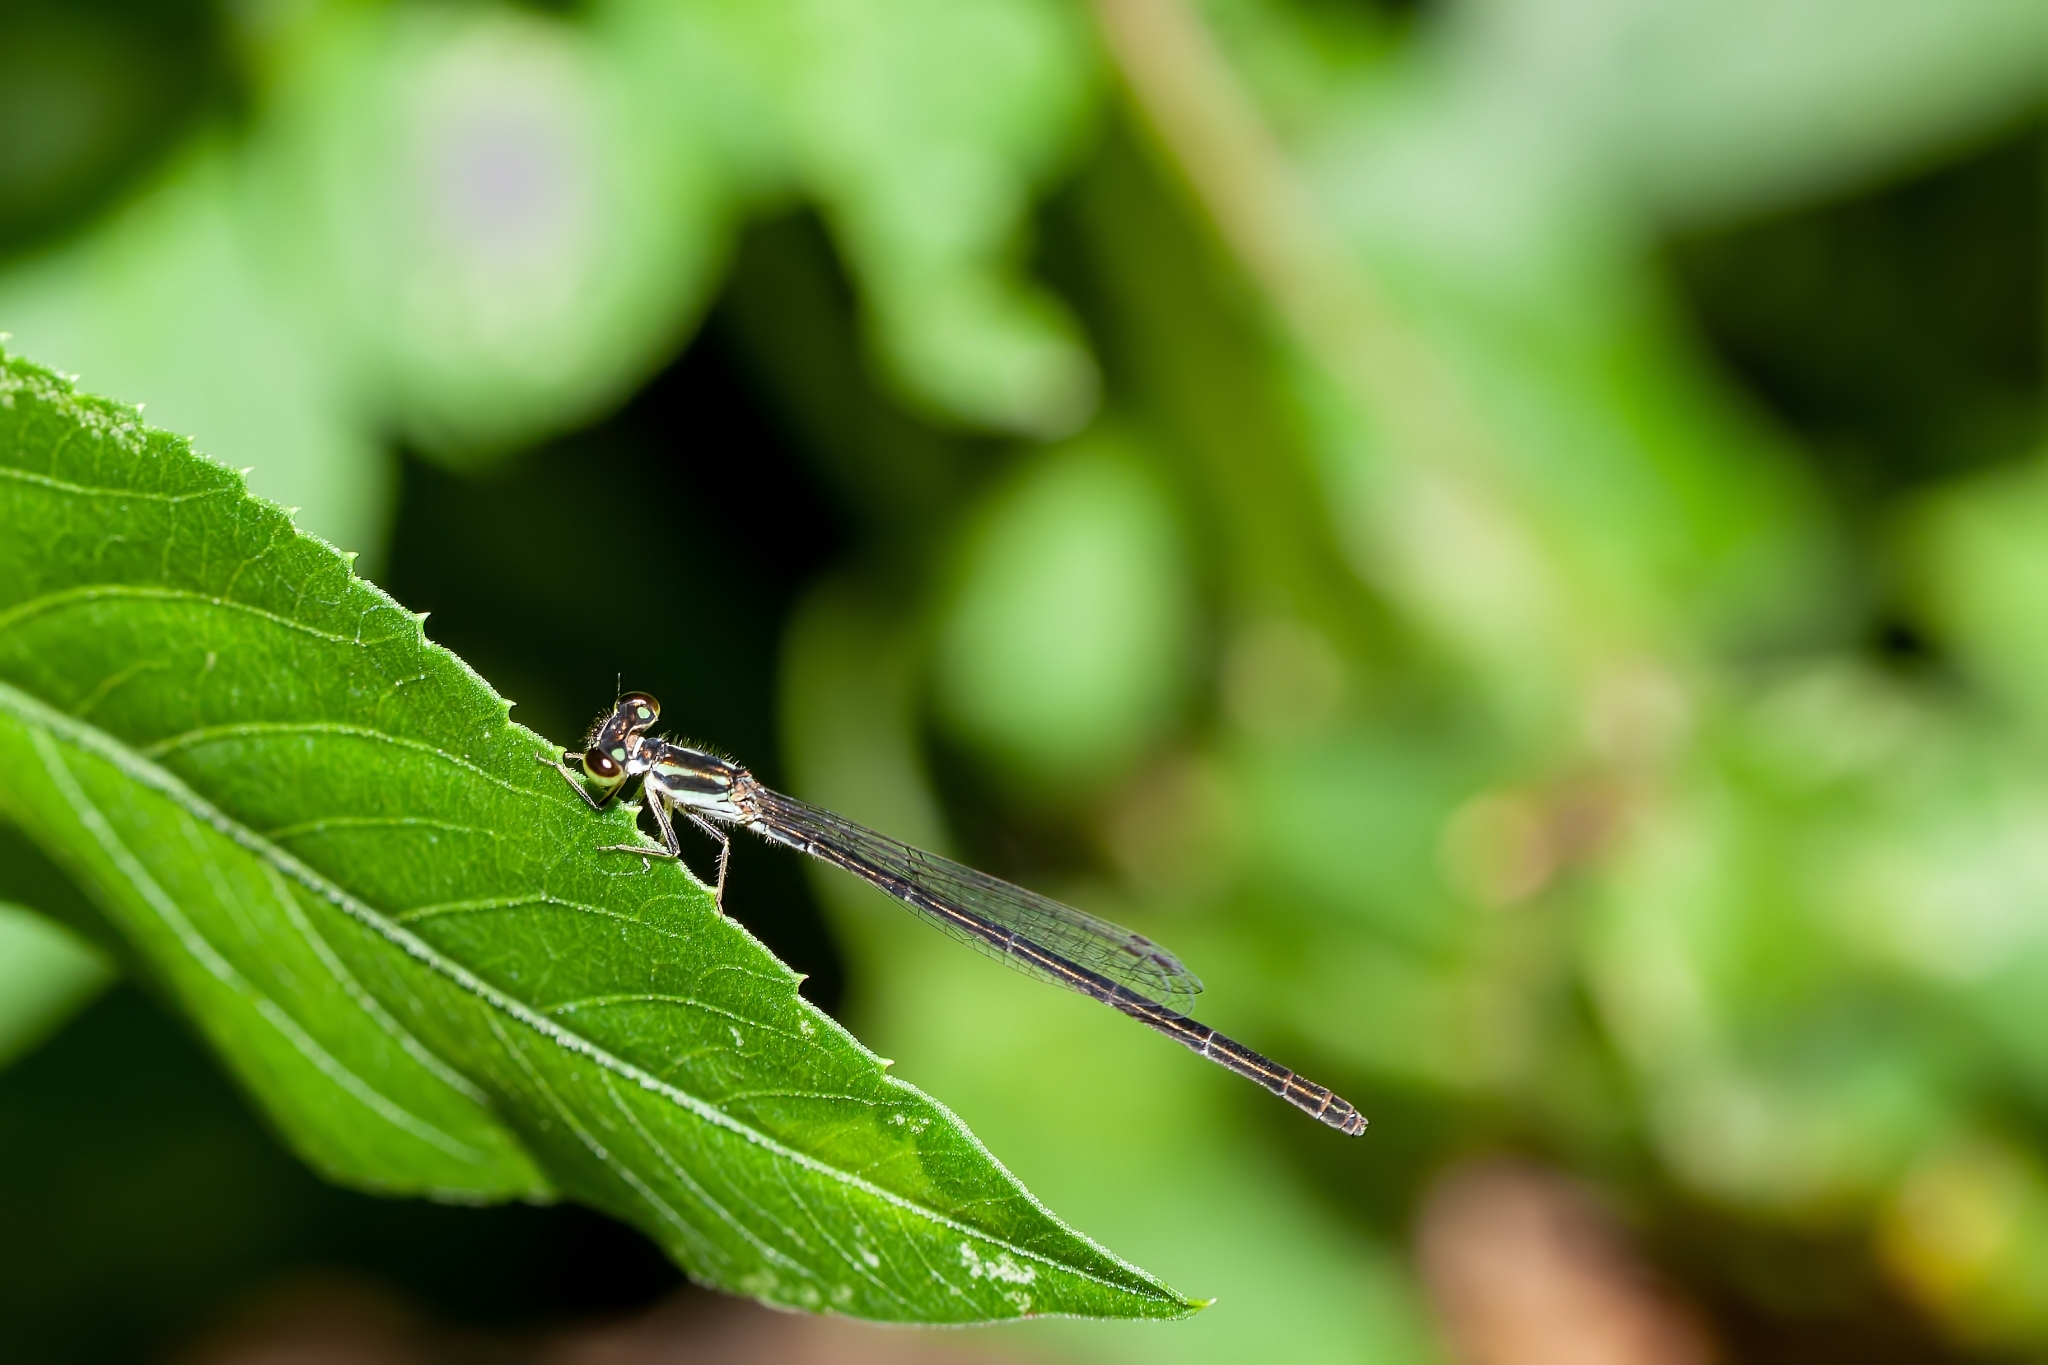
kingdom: Animalia
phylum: Arthropoda
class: Insecta
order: Odonata
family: Coenagrionidae
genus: Ischnura
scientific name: Ischnura posita
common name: Fragile forktail
